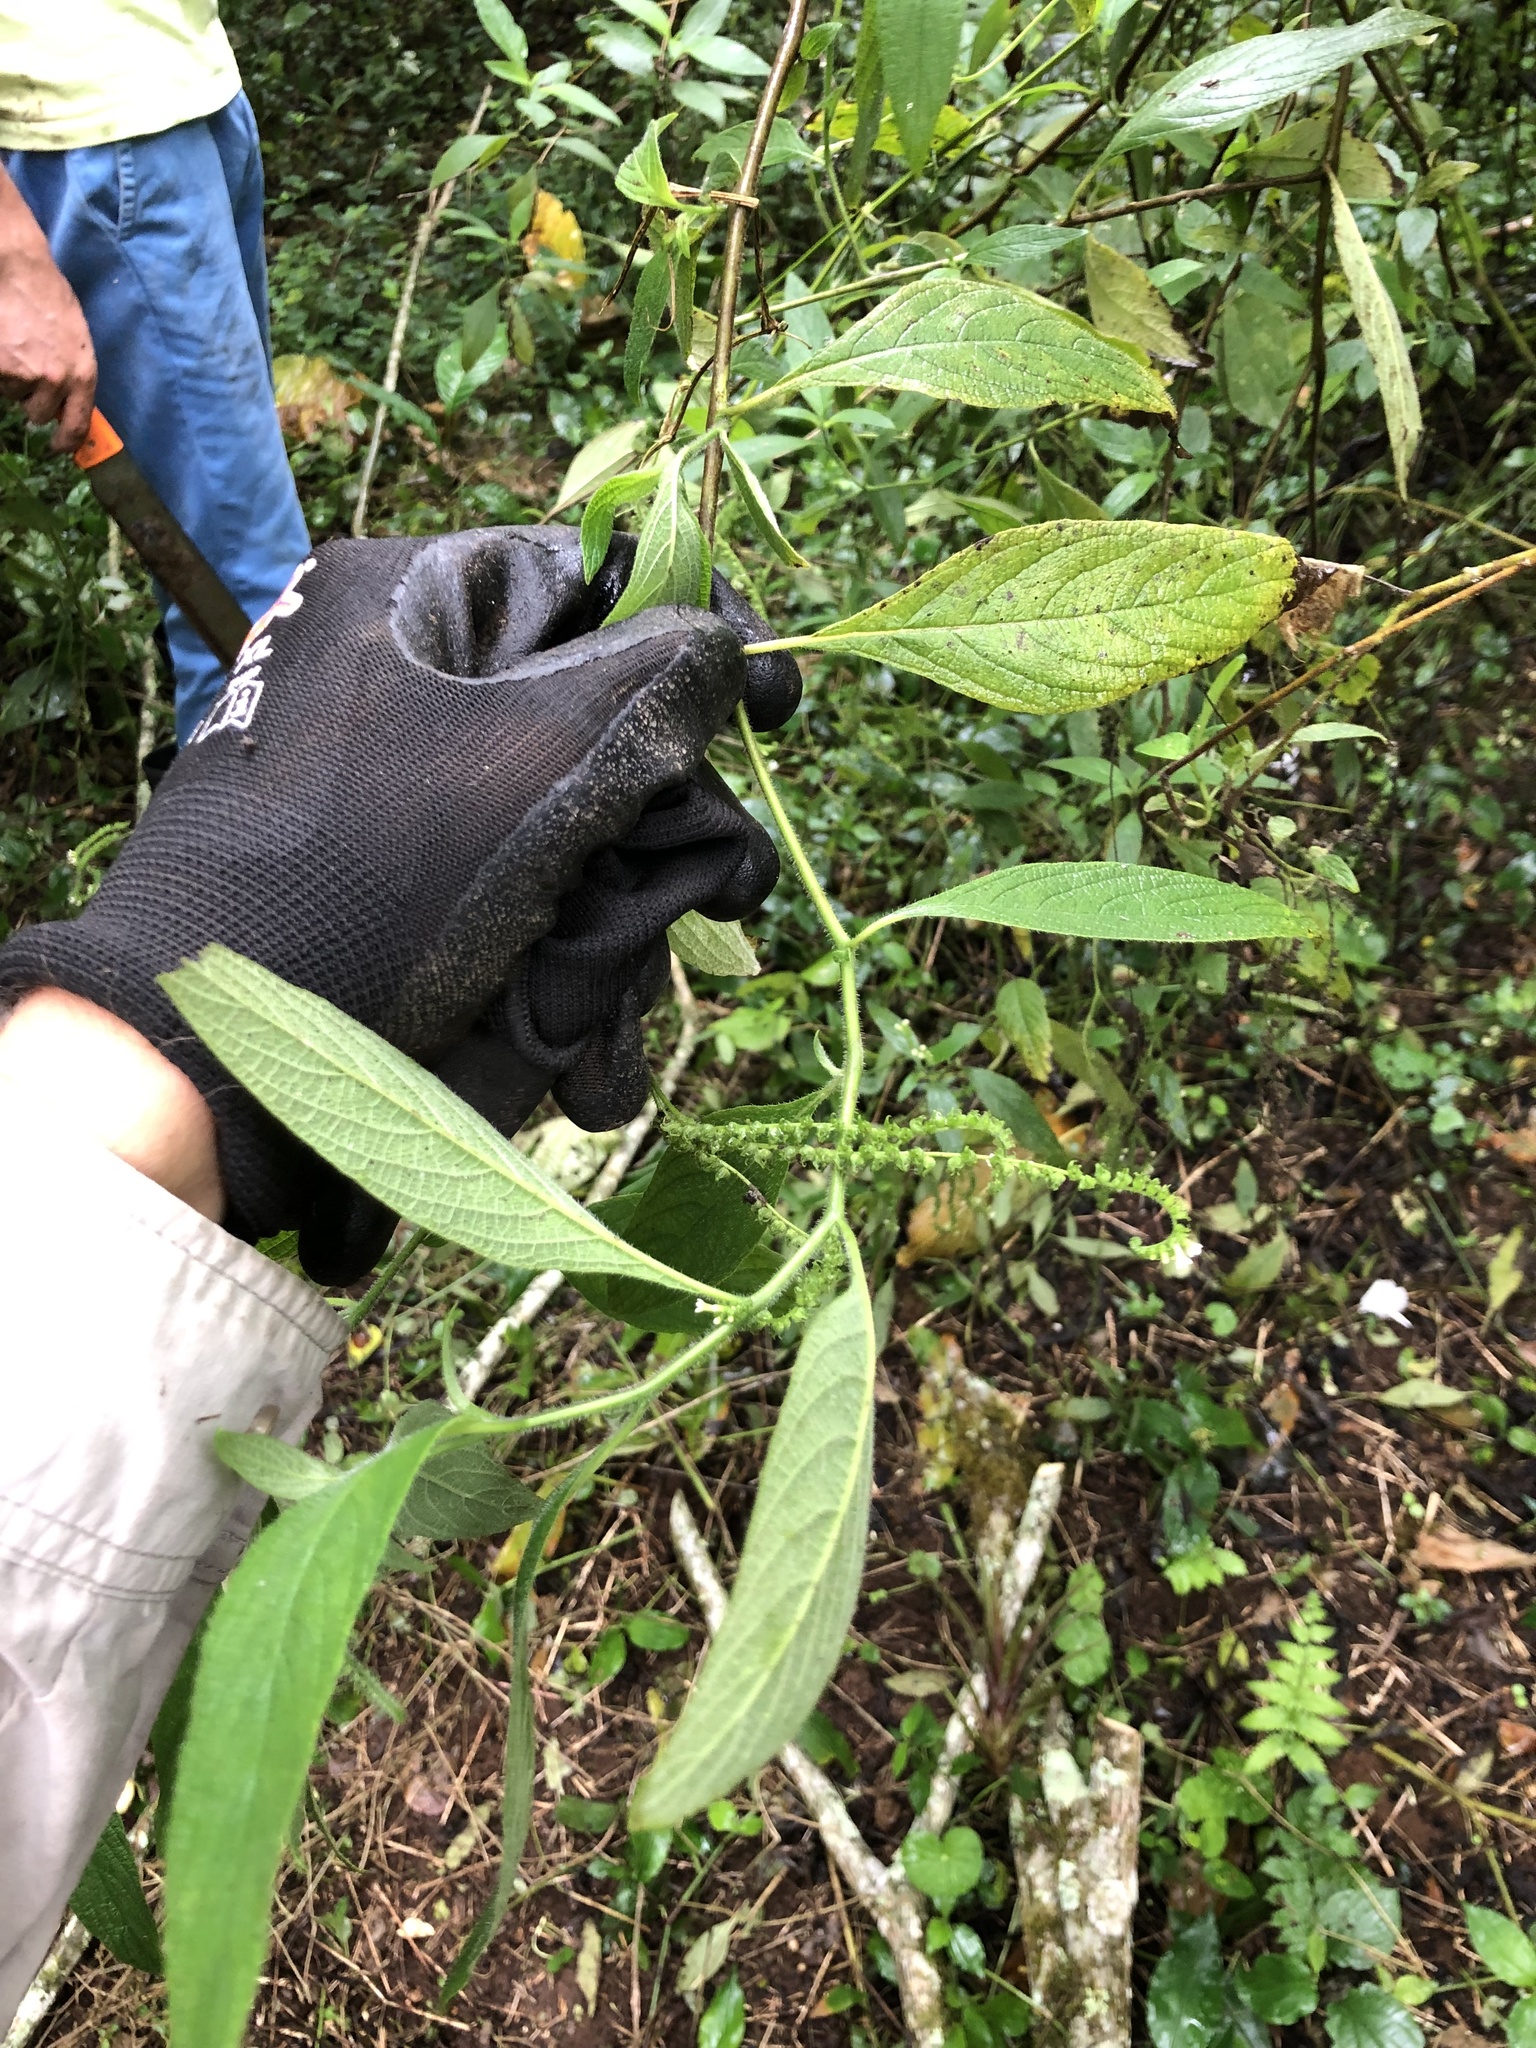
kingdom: Plantae
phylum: Tracheophyta
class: Magnoliopsida
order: Boraginales
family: Heliotropiaceae
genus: Heliotropium
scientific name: Heliotropium rufipilum
